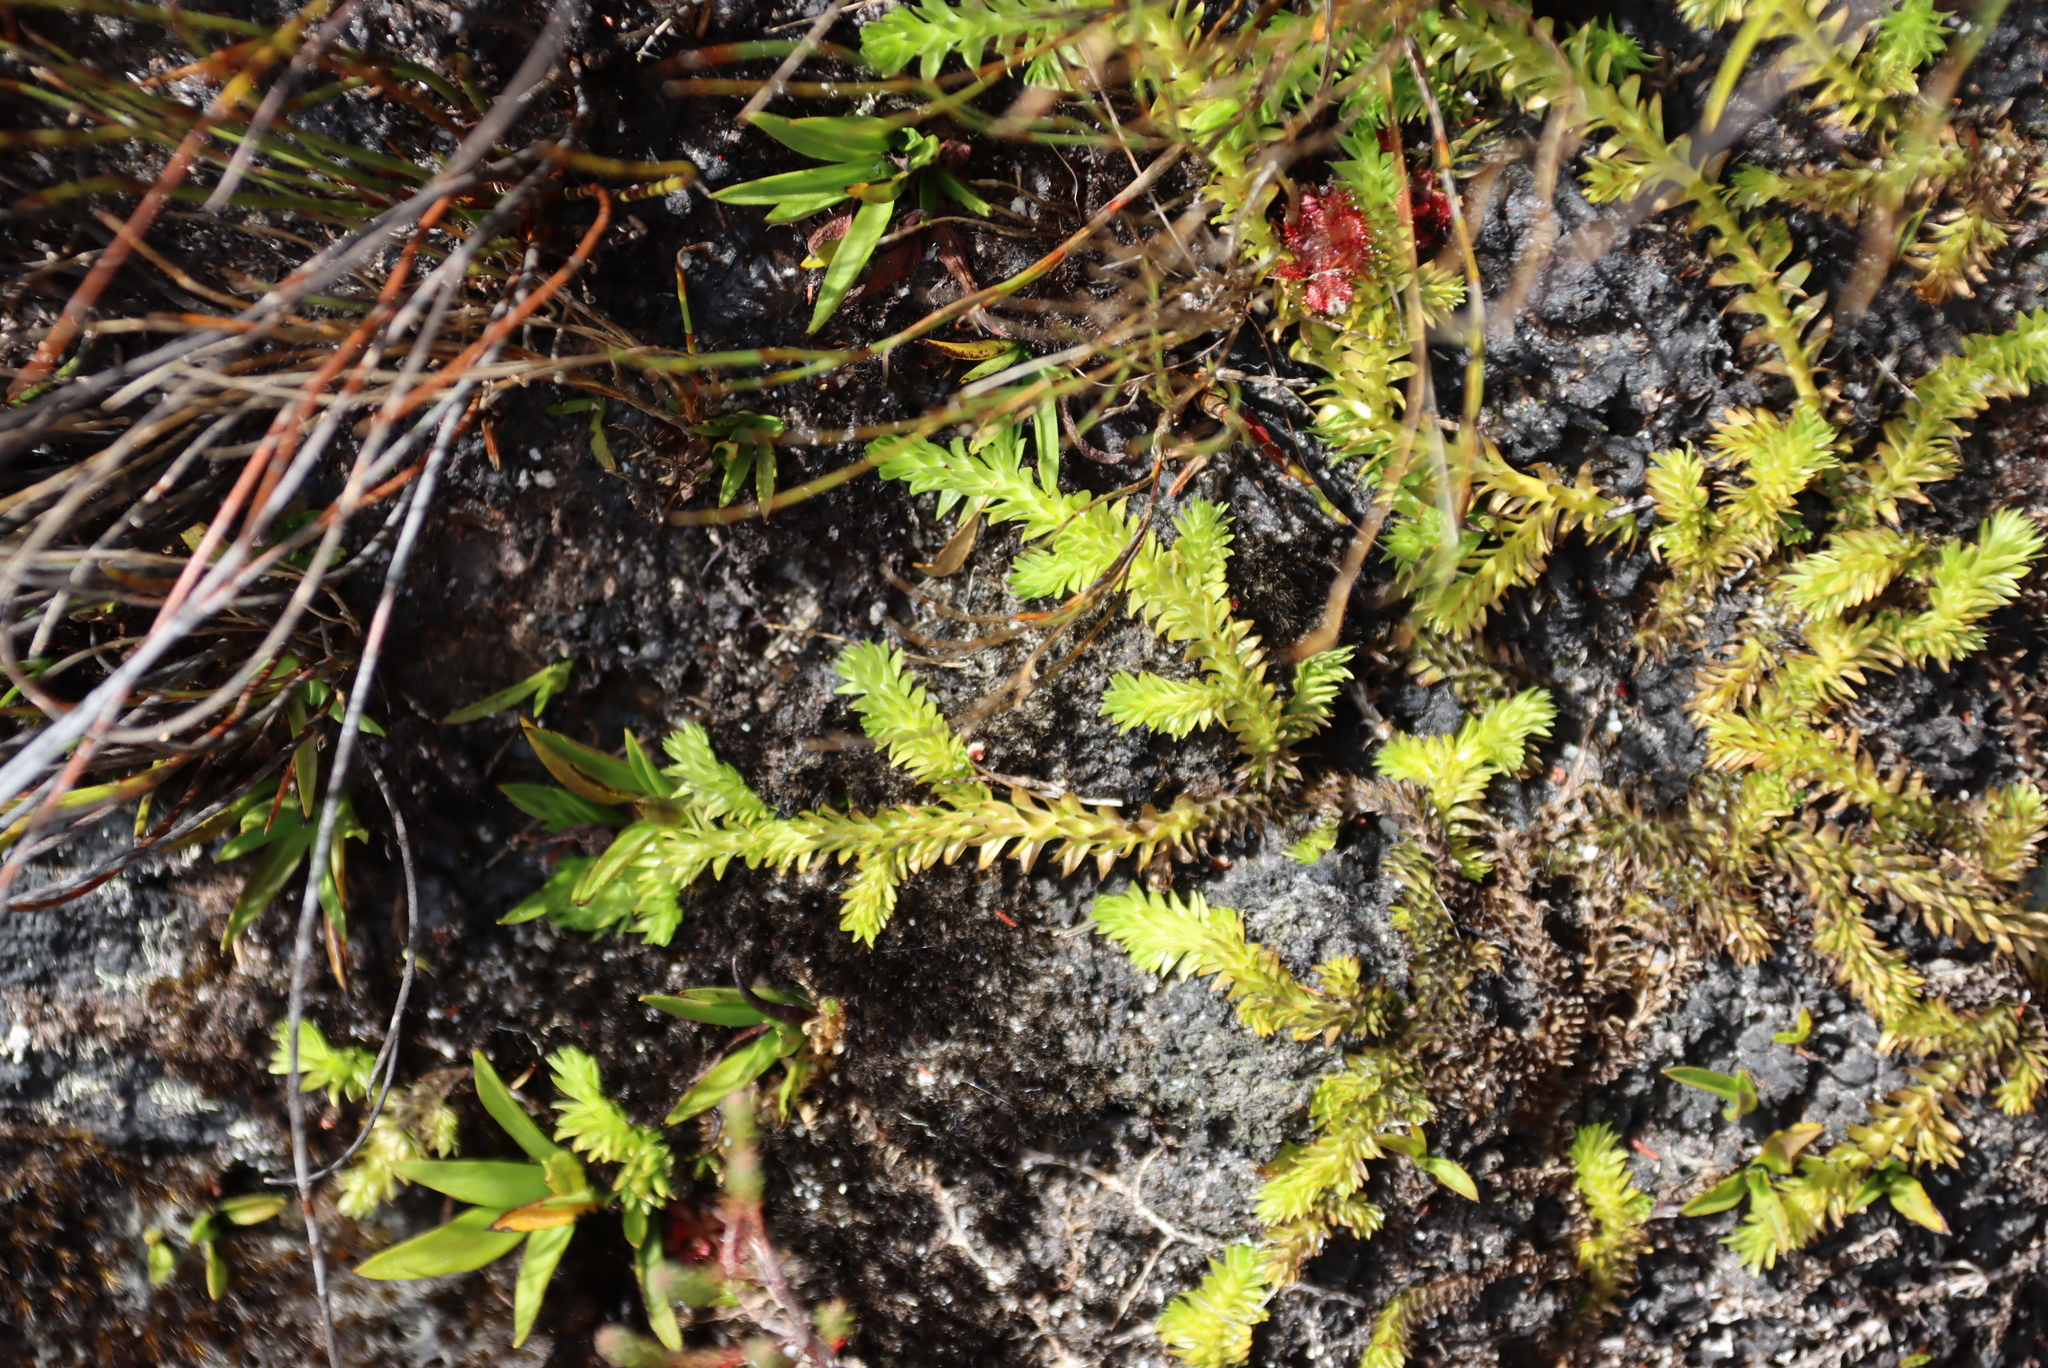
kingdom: Plantae
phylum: Tracheophyta
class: Lycopodiopsida
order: Lycopodiales
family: Lycopodiaceae
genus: Pseudolycopodiella
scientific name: Pseudolycopodiella caroliniana
